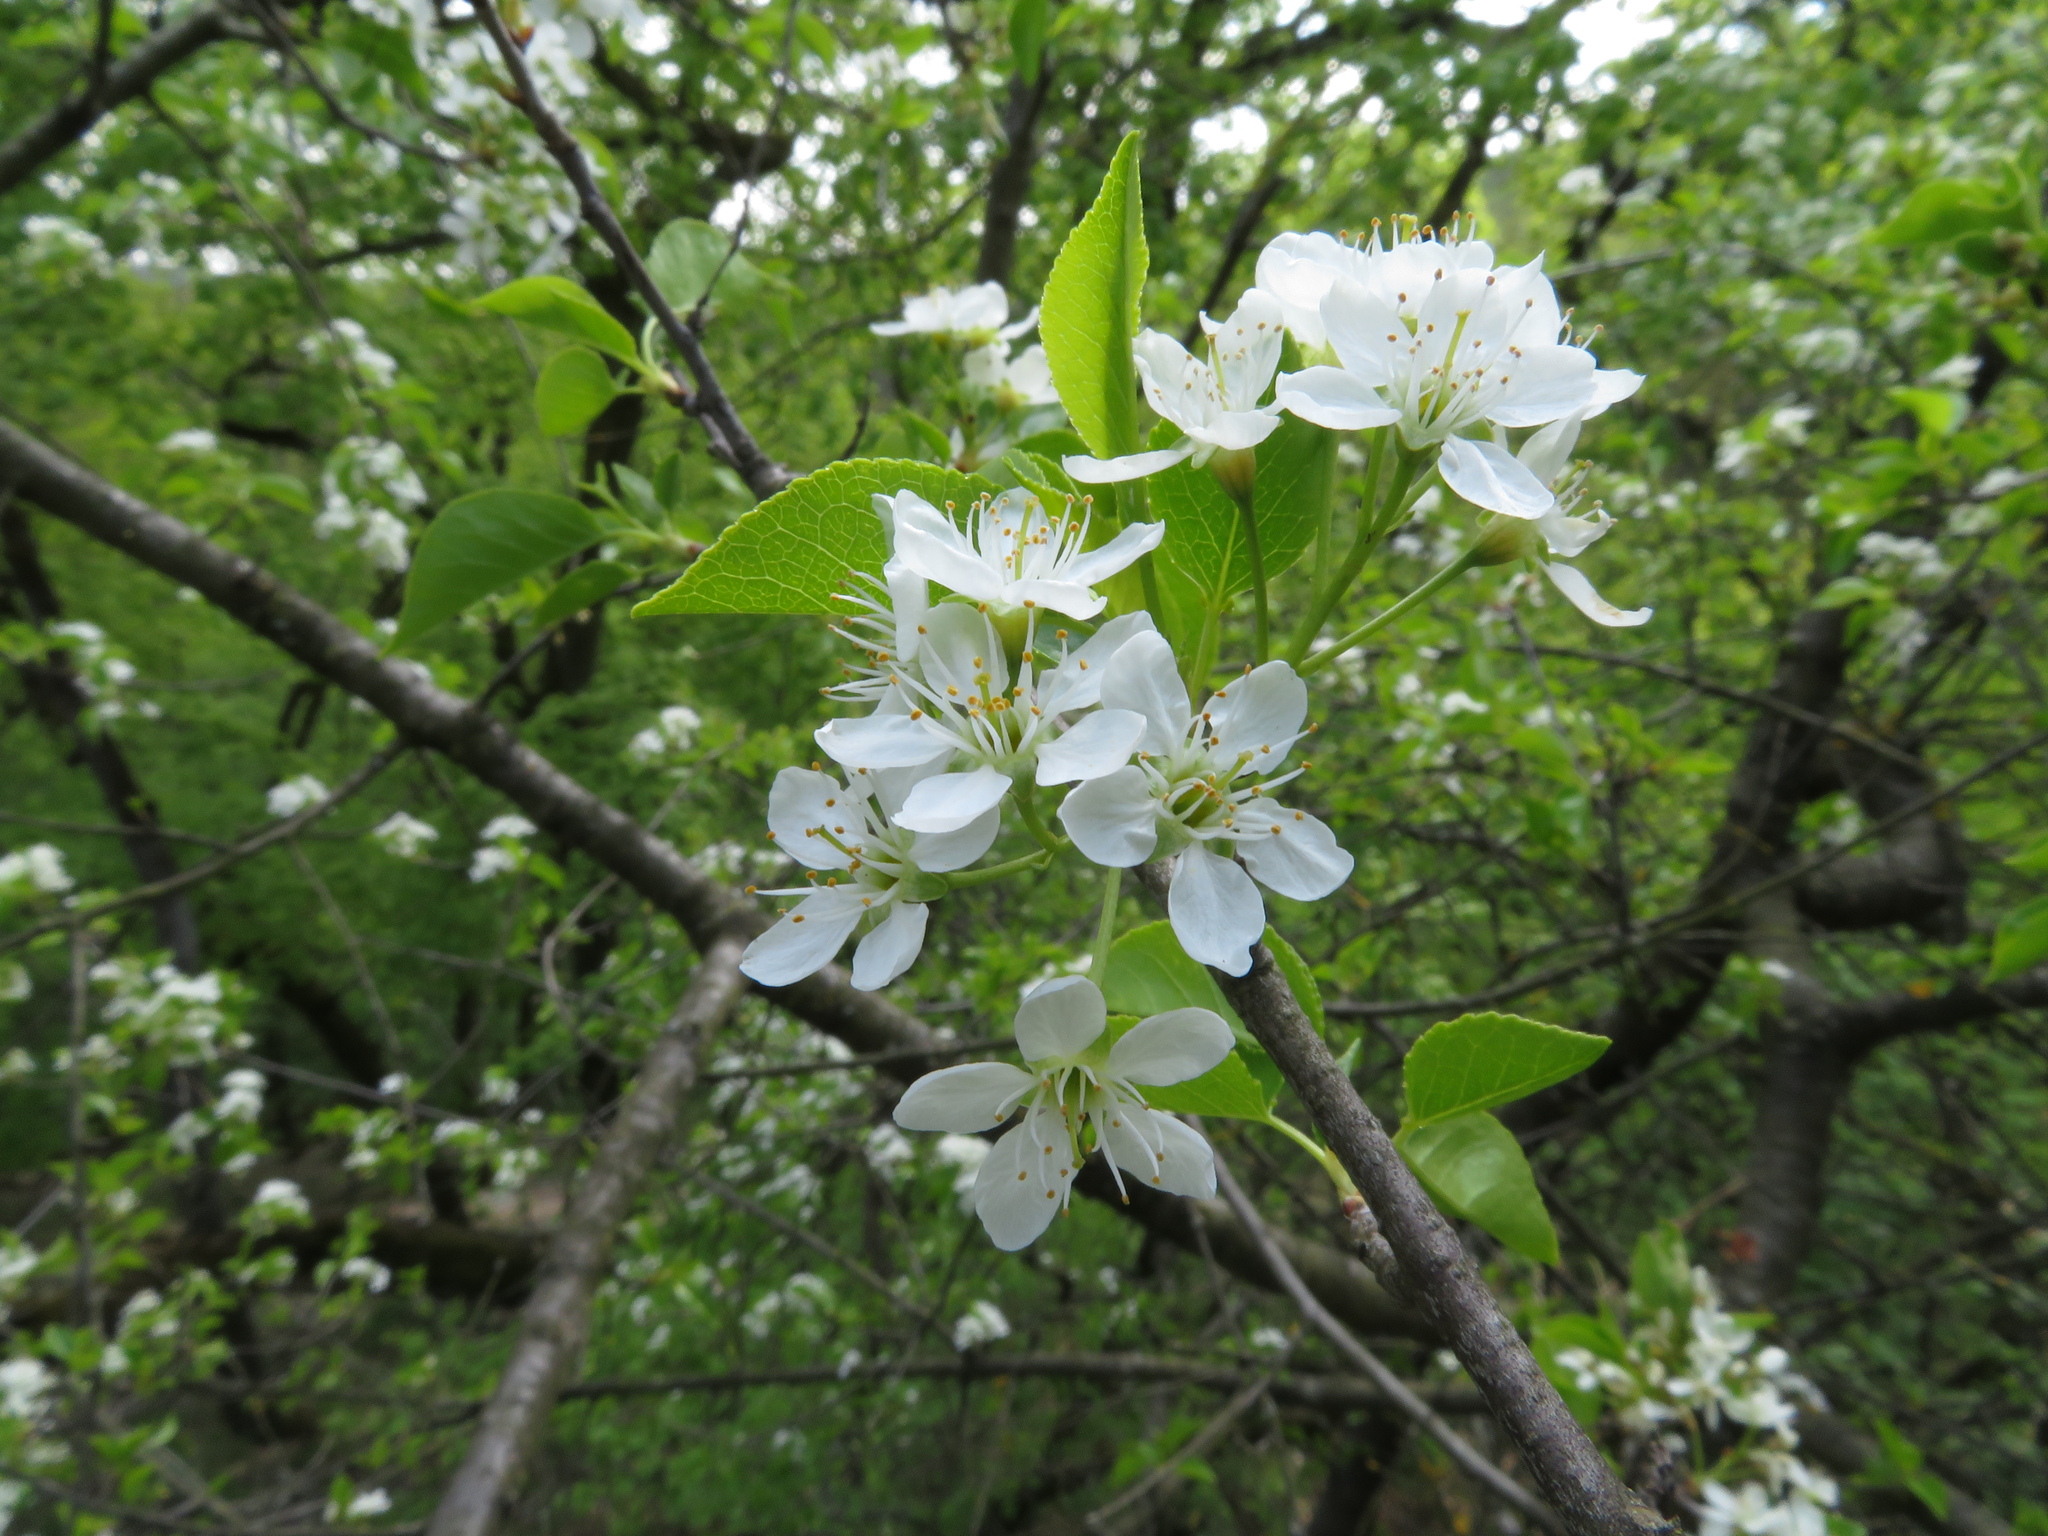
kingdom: Plantae
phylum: Tracheophyta
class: Magnoliopsida
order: Rosales
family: Rosaceae
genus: Prunus
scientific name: Prunus mahaleb
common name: Mahaleb cherry
